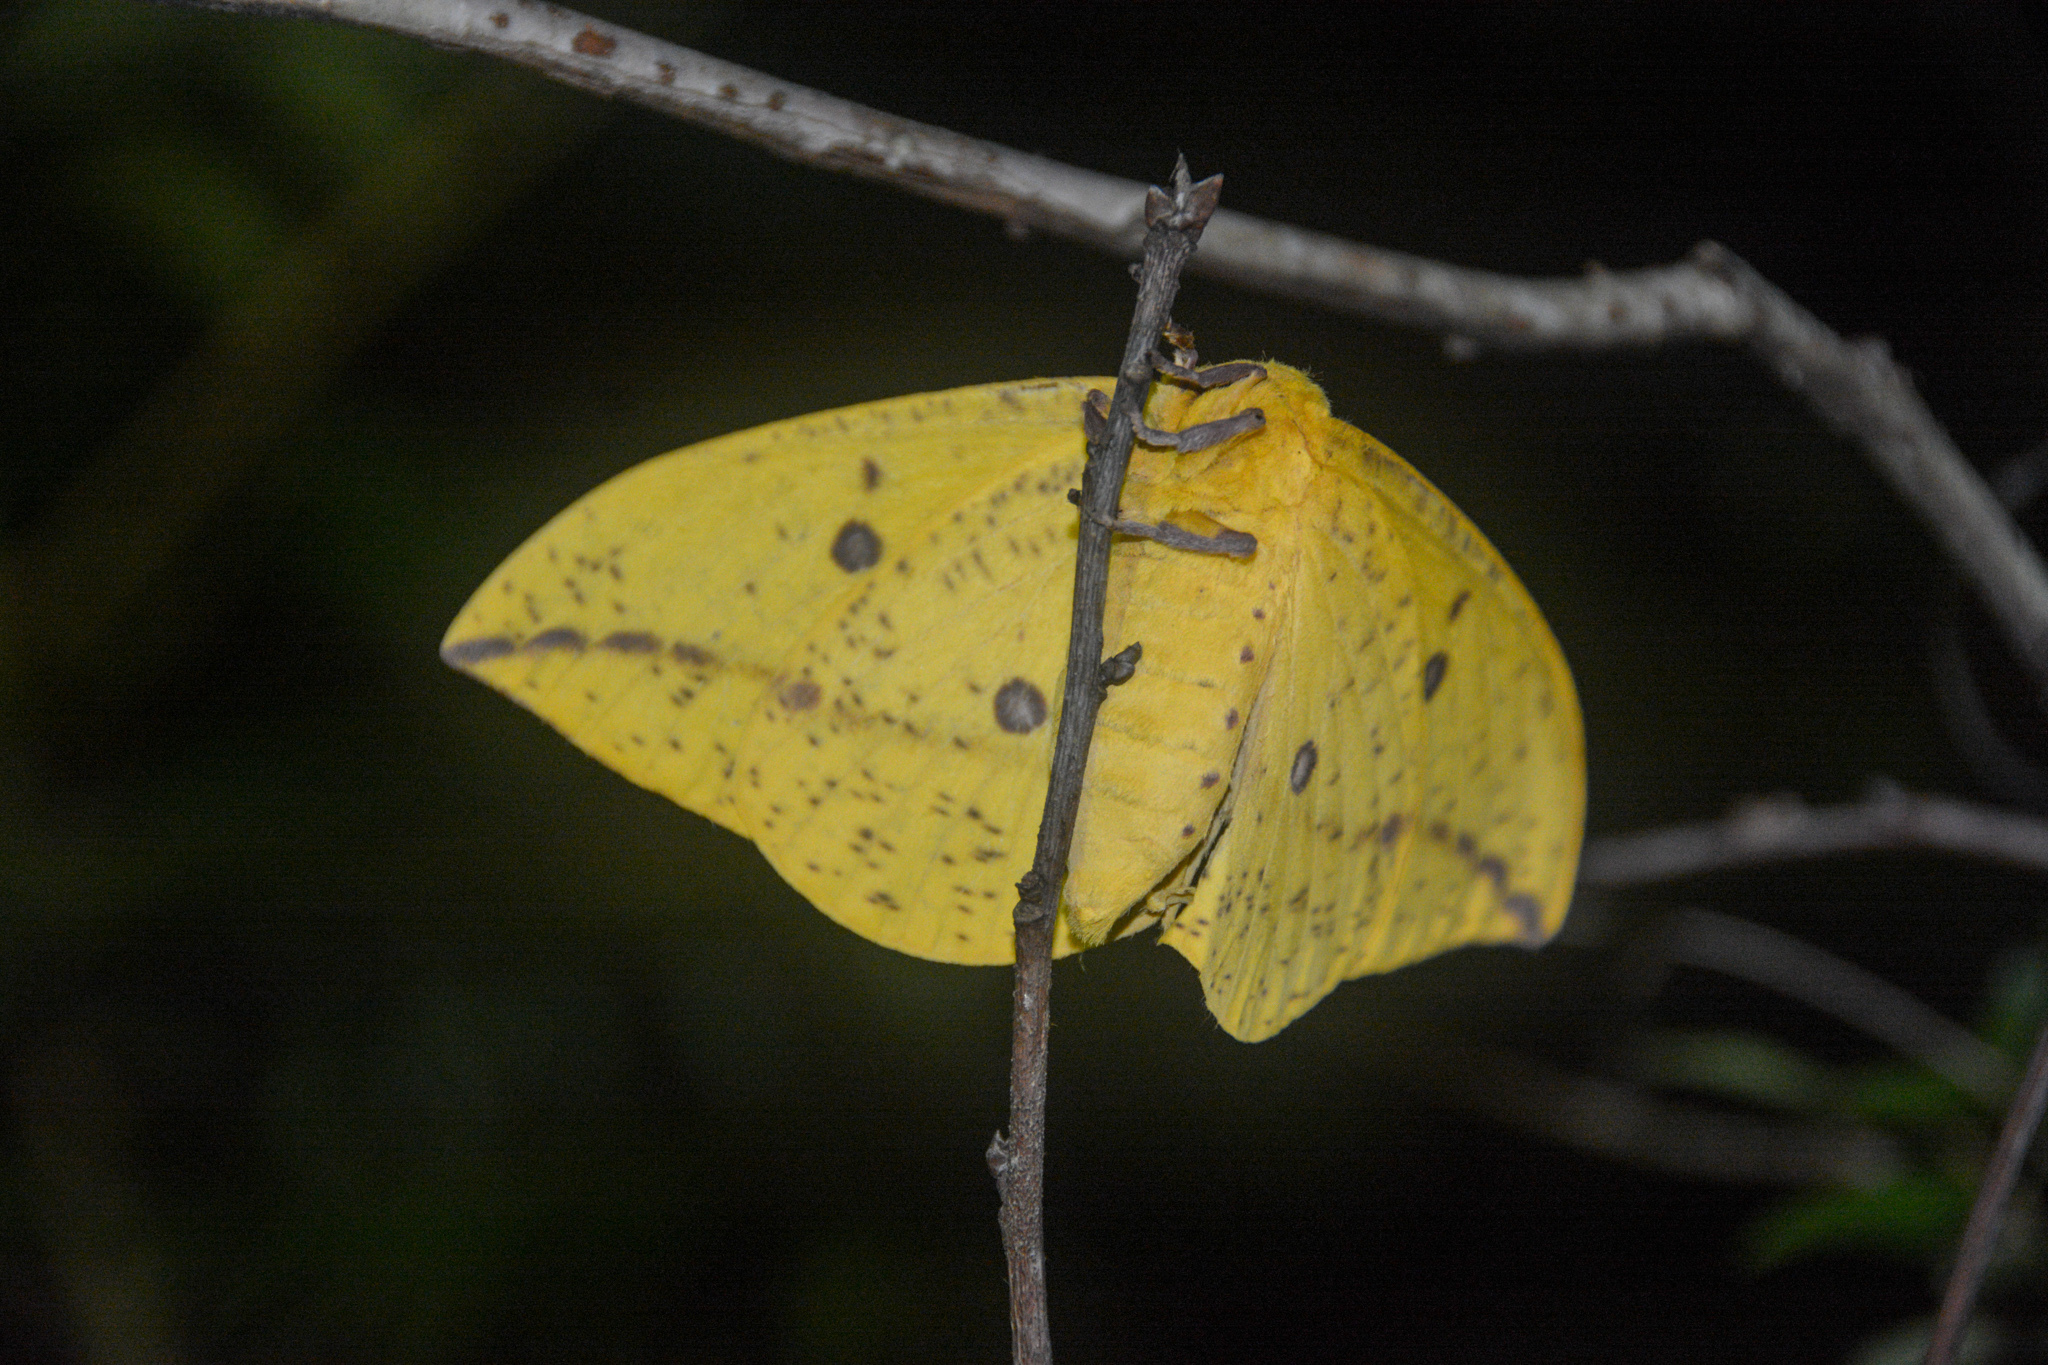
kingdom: Animalia
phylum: Arthropoda
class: Insecta
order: Lepidoptera
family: Saturniidae
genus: Eacles
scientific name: Eacles imperialis
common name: Imperial moth
